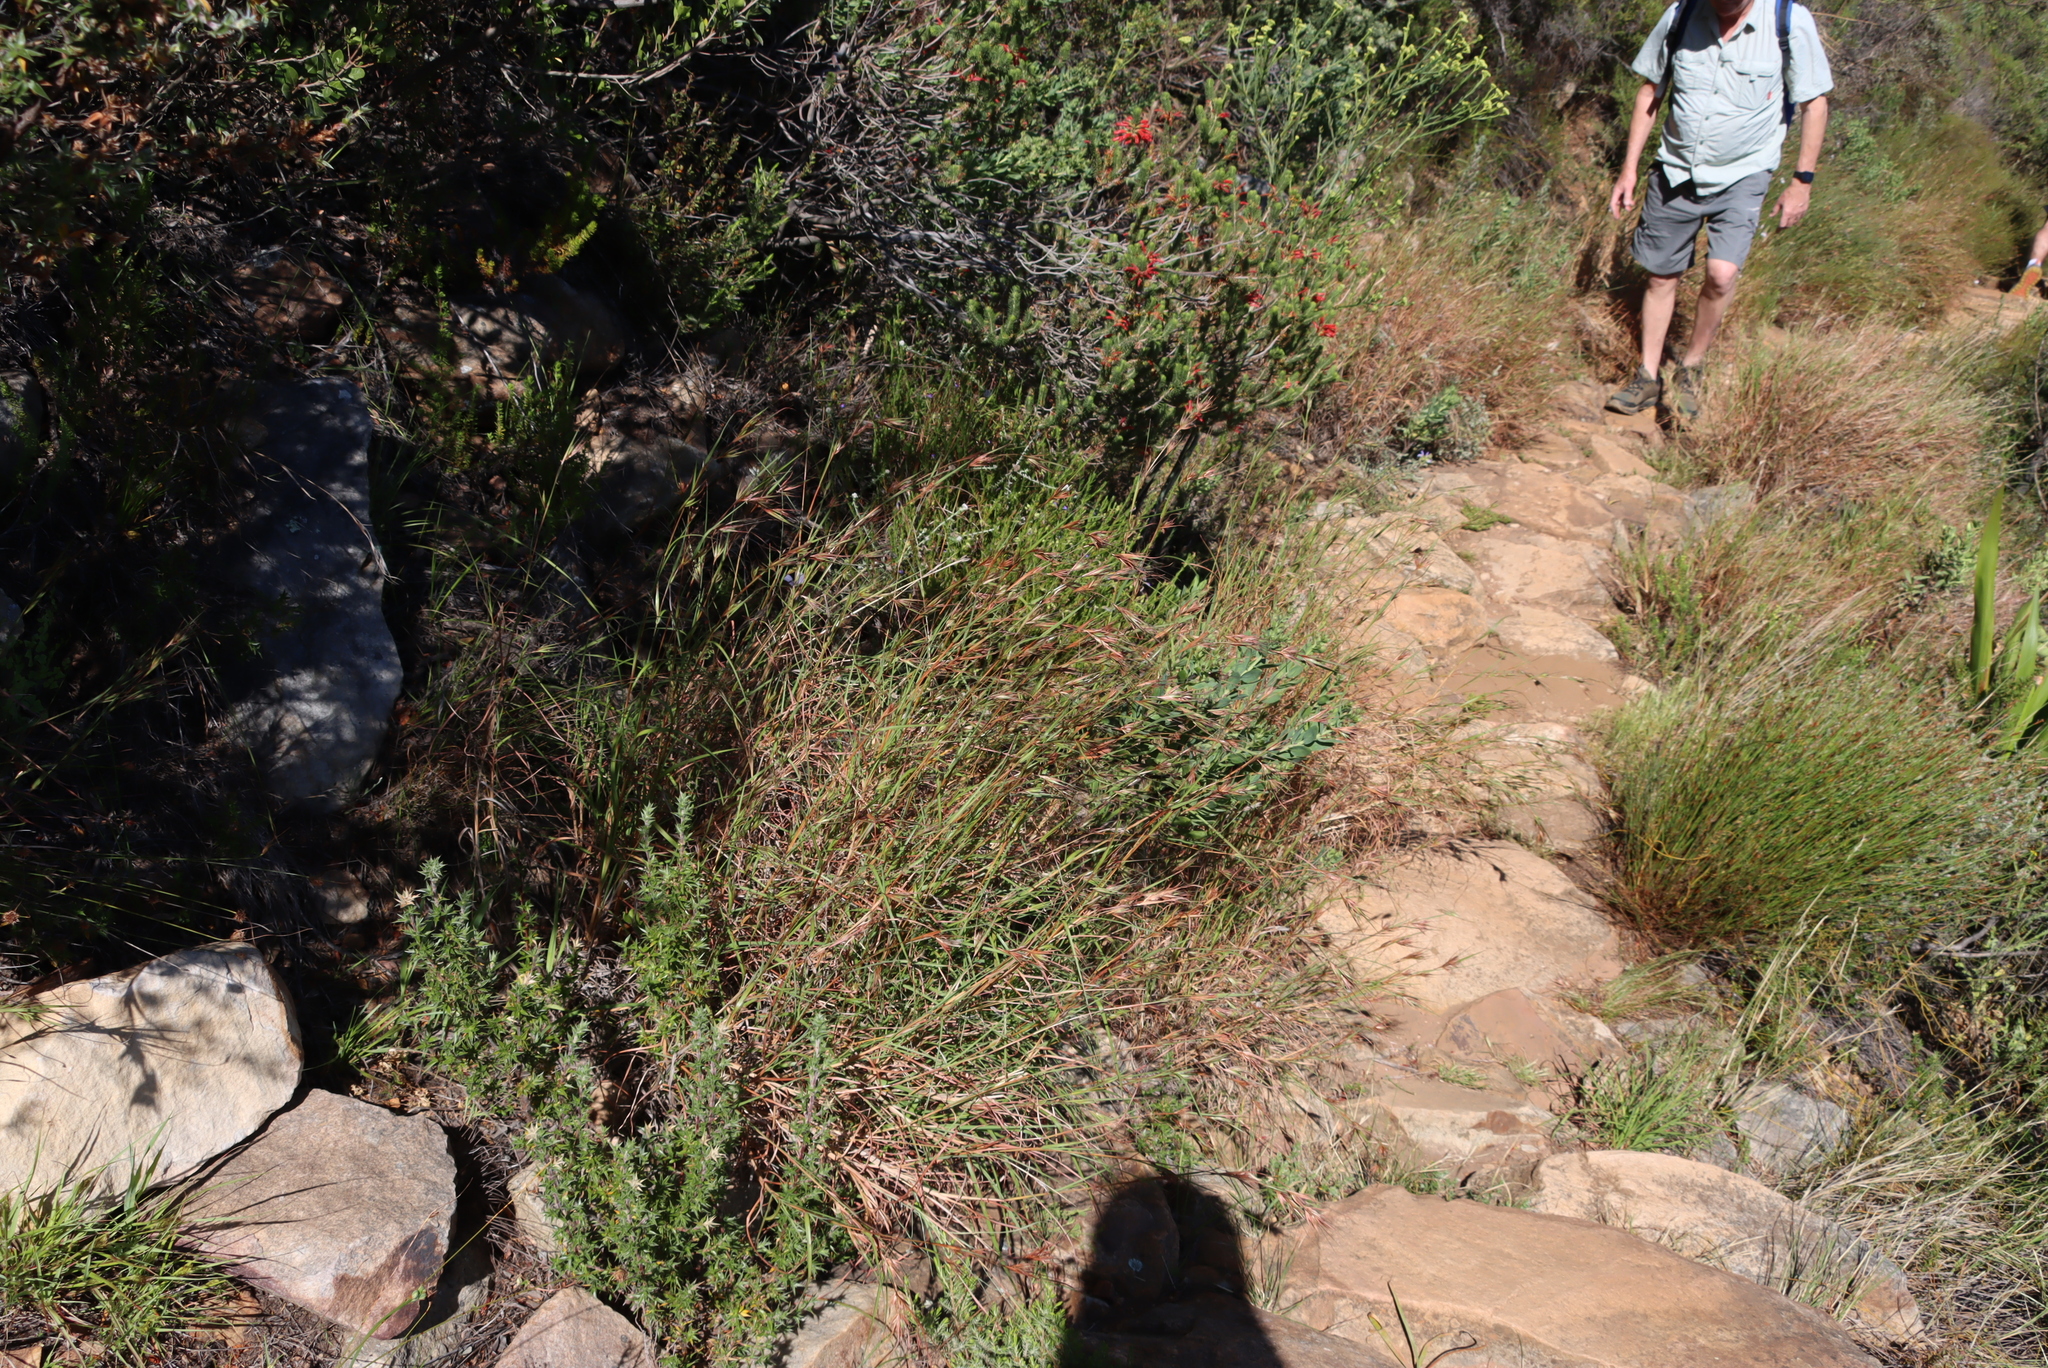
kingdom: Plantae
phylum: Tracheophyta
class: Liliopsida
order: Poales
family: Poaceae
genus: Themeda
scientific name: Themeda triandra
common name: Kangaroo grass
